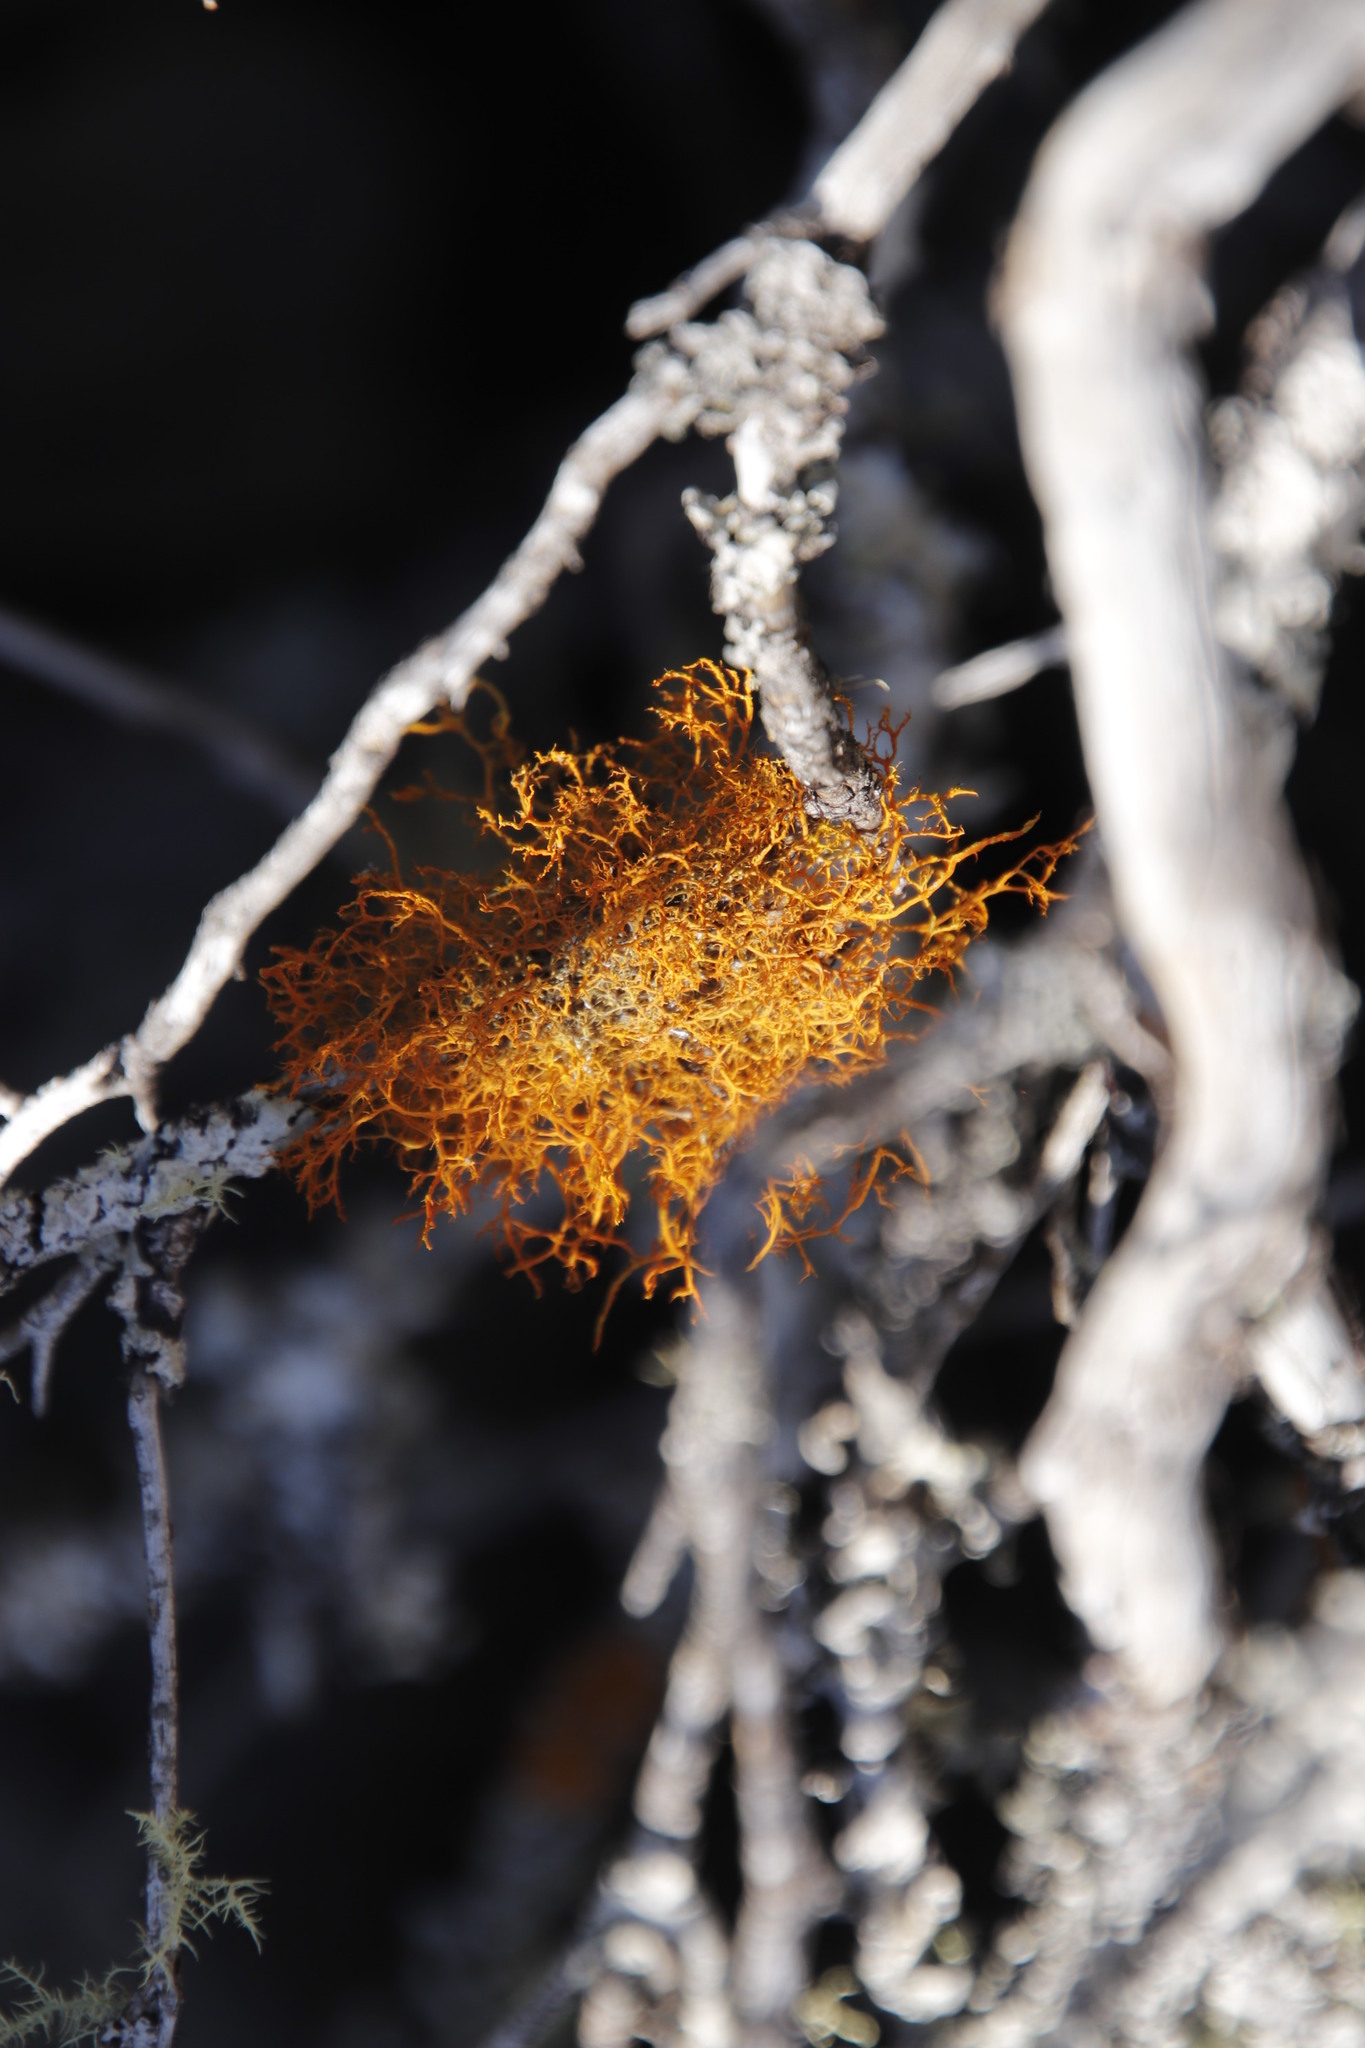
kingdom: Fungi
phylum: Ascomycota
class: Lecanoromycetes
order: Teloschistales
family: Teloschistaceae
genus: Teloschistes
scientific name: Teloschistes flavicans
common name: Golden hair-lichen
